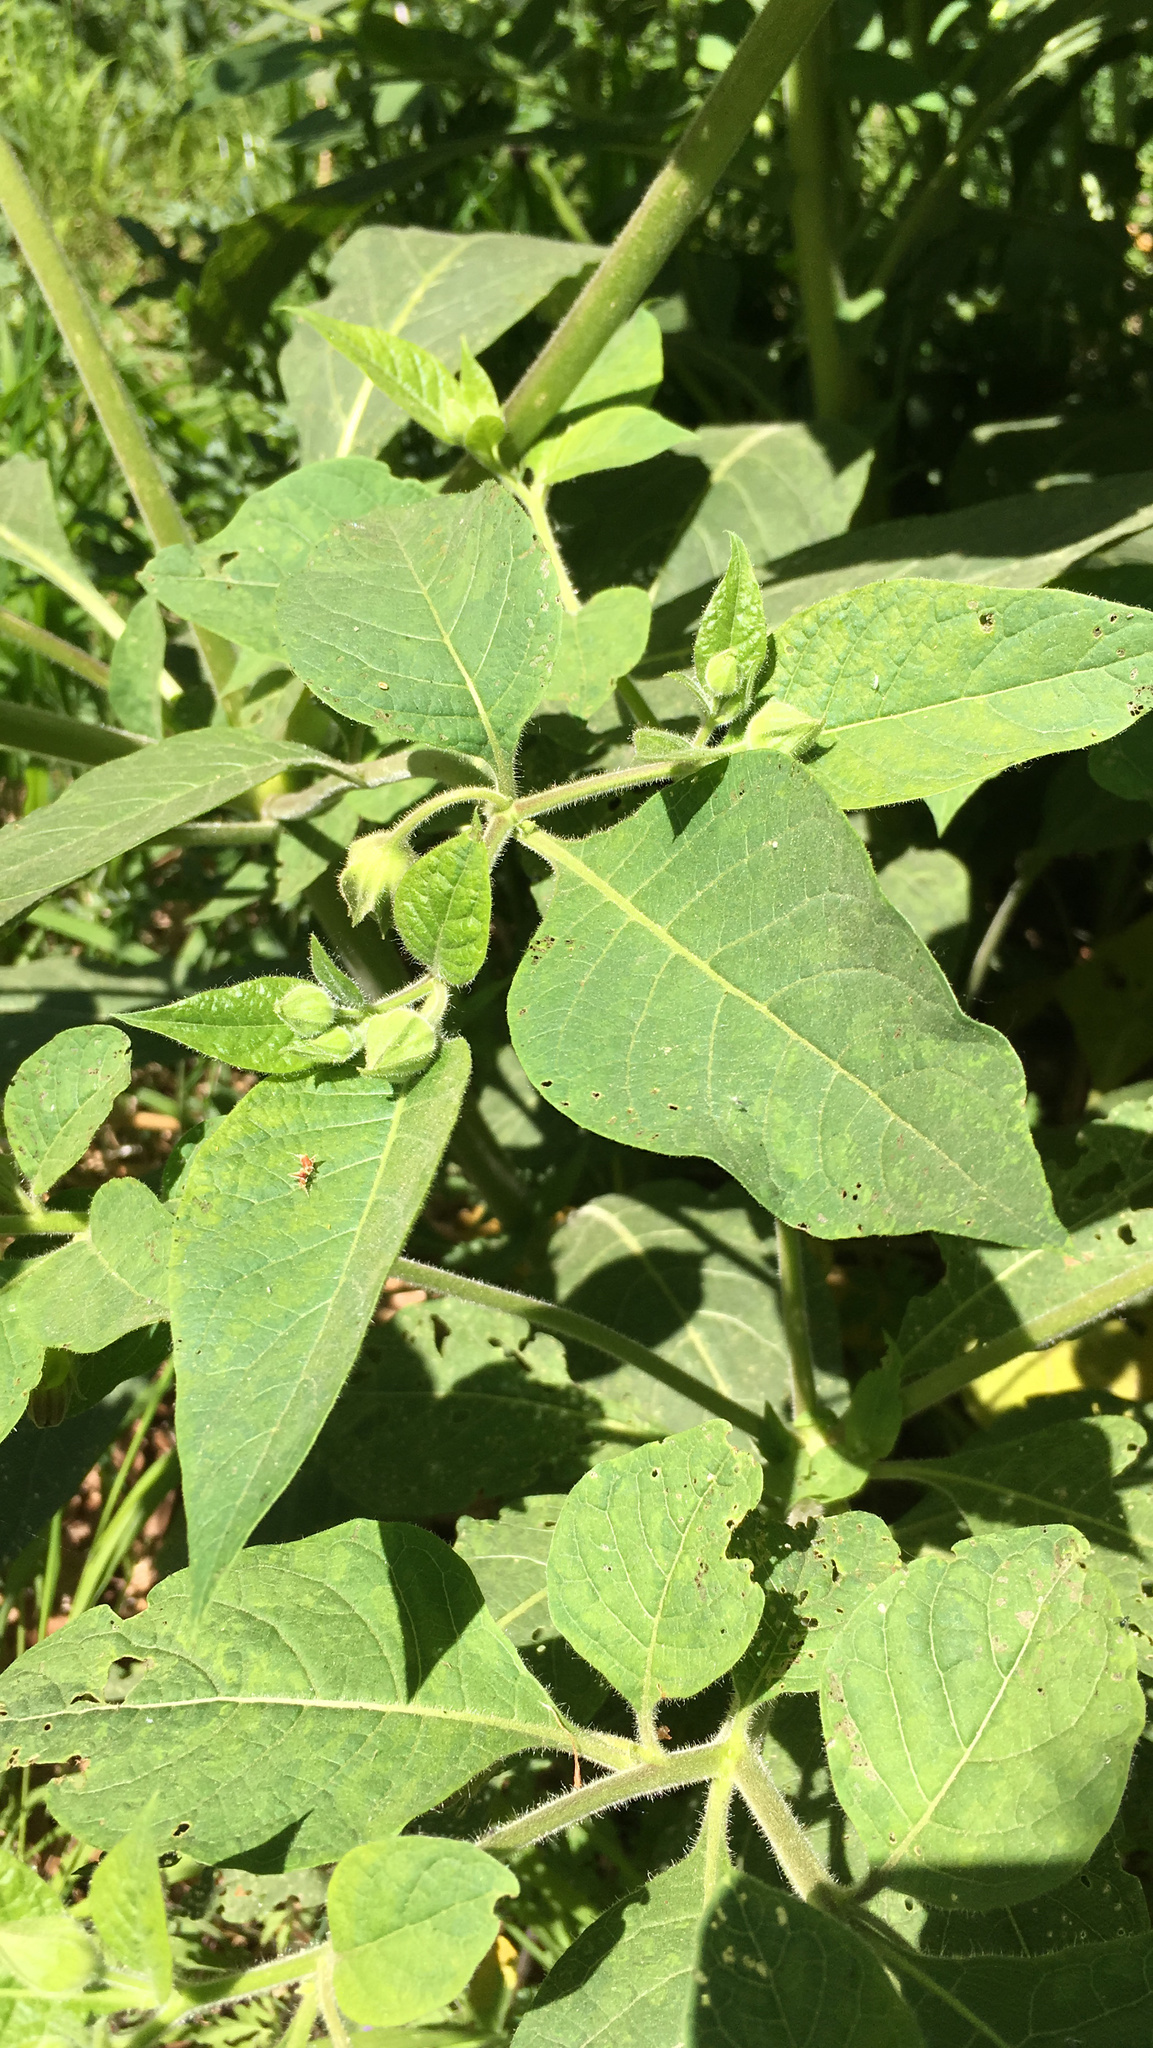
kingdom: Plantae
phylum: Tracheophyta
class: Magnoliopsida
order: Solanales
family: Solanaceae
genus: Atropa
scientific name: Atropa belladonna
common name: Deadly nightshade
